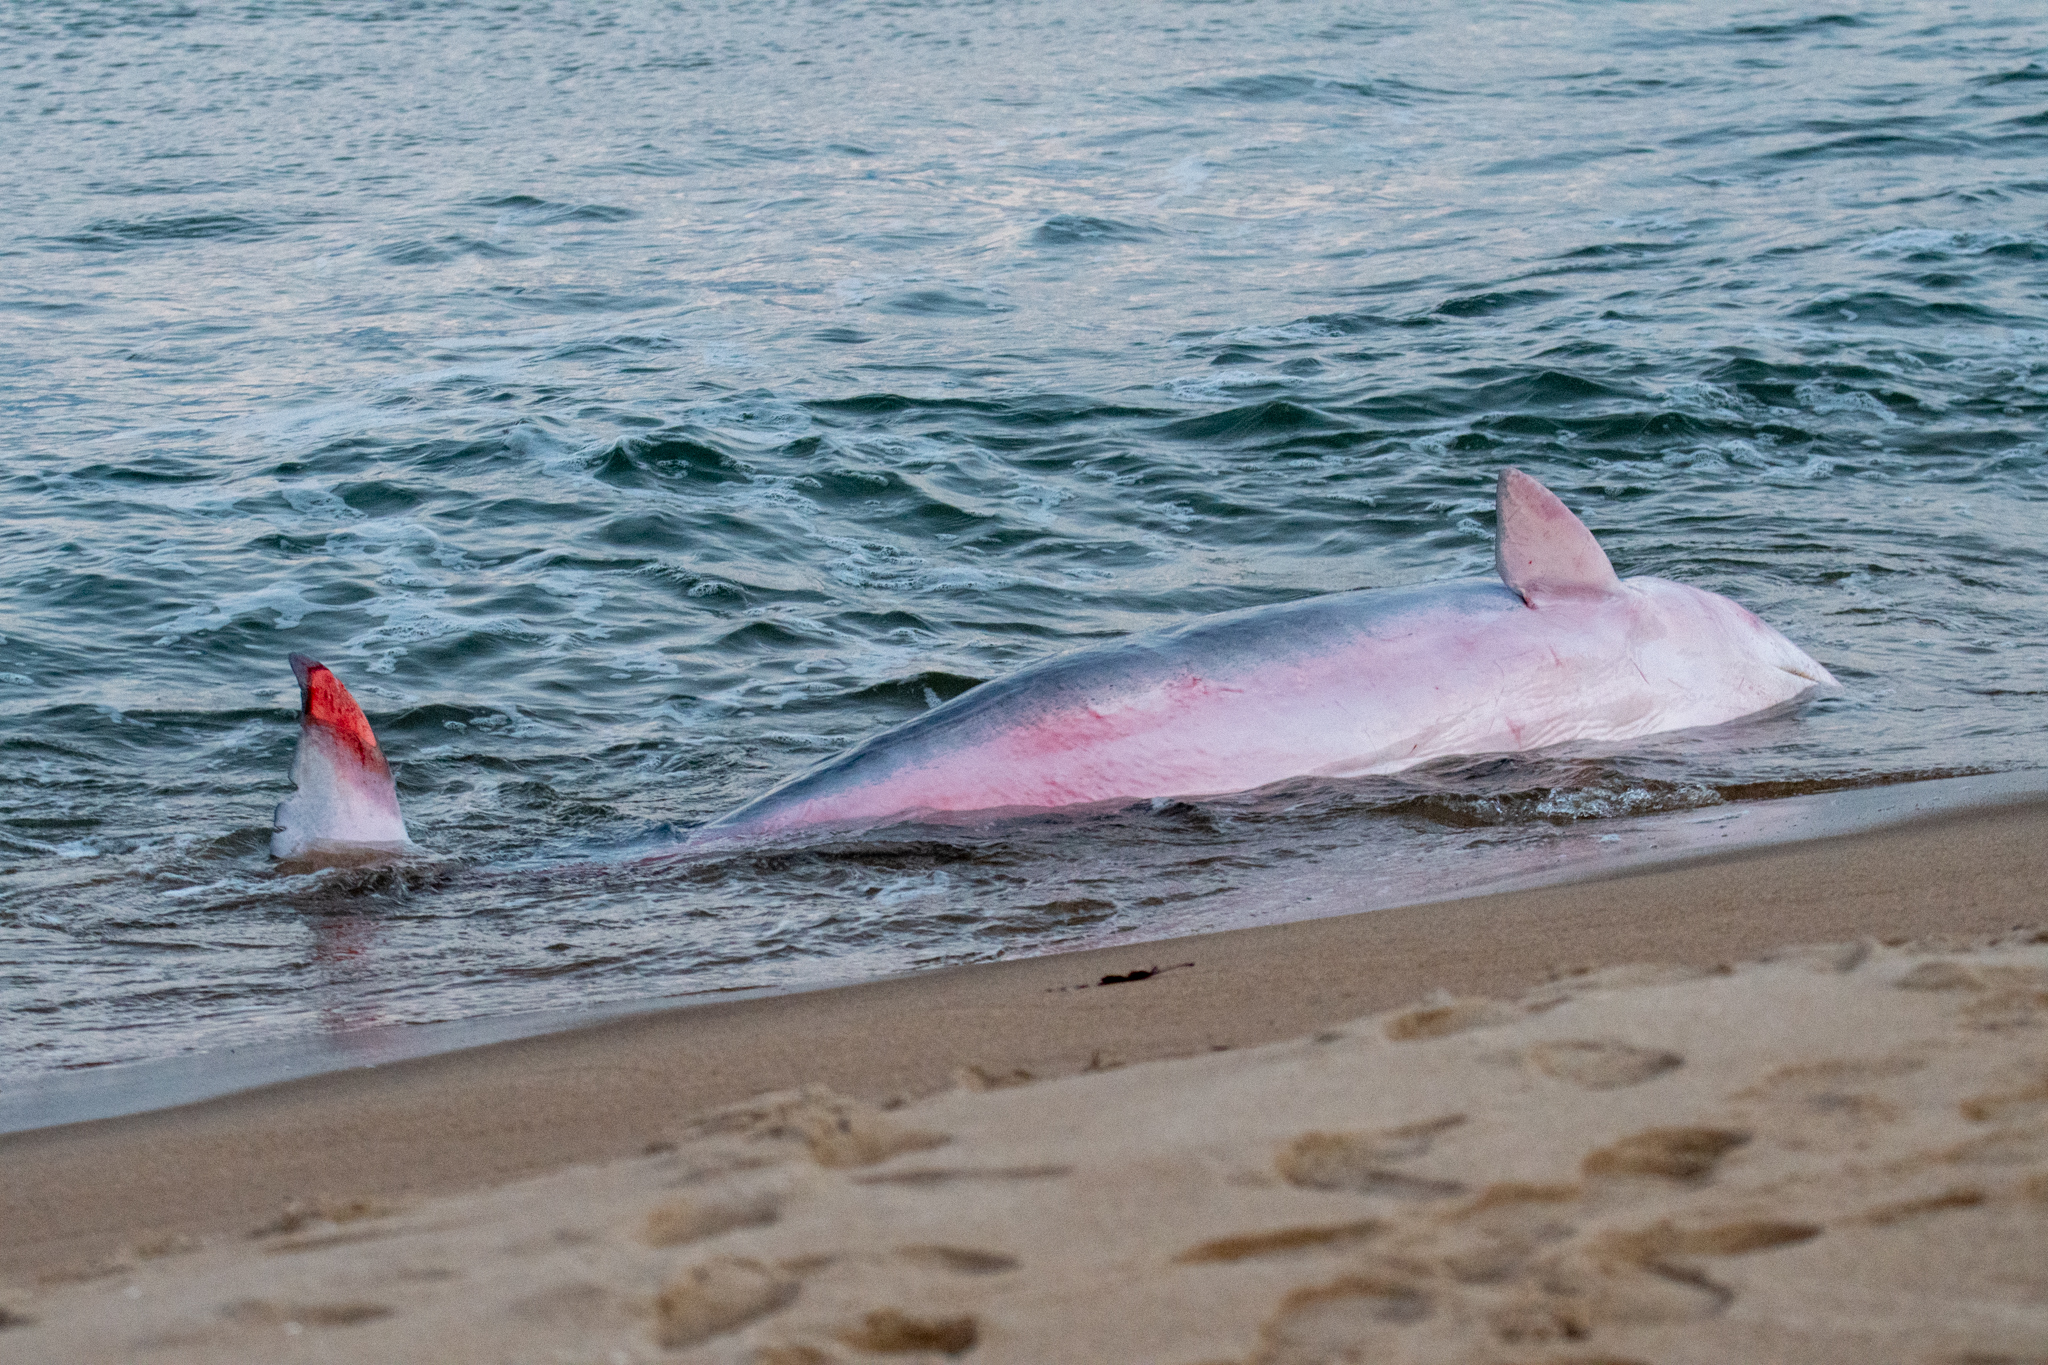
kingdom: Animalia
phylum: Chordata
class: Mammalia
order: Cetacea
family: Kogiidae
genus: Kogia
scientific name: Kogia breviceps
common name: Pygmy sperm whale
